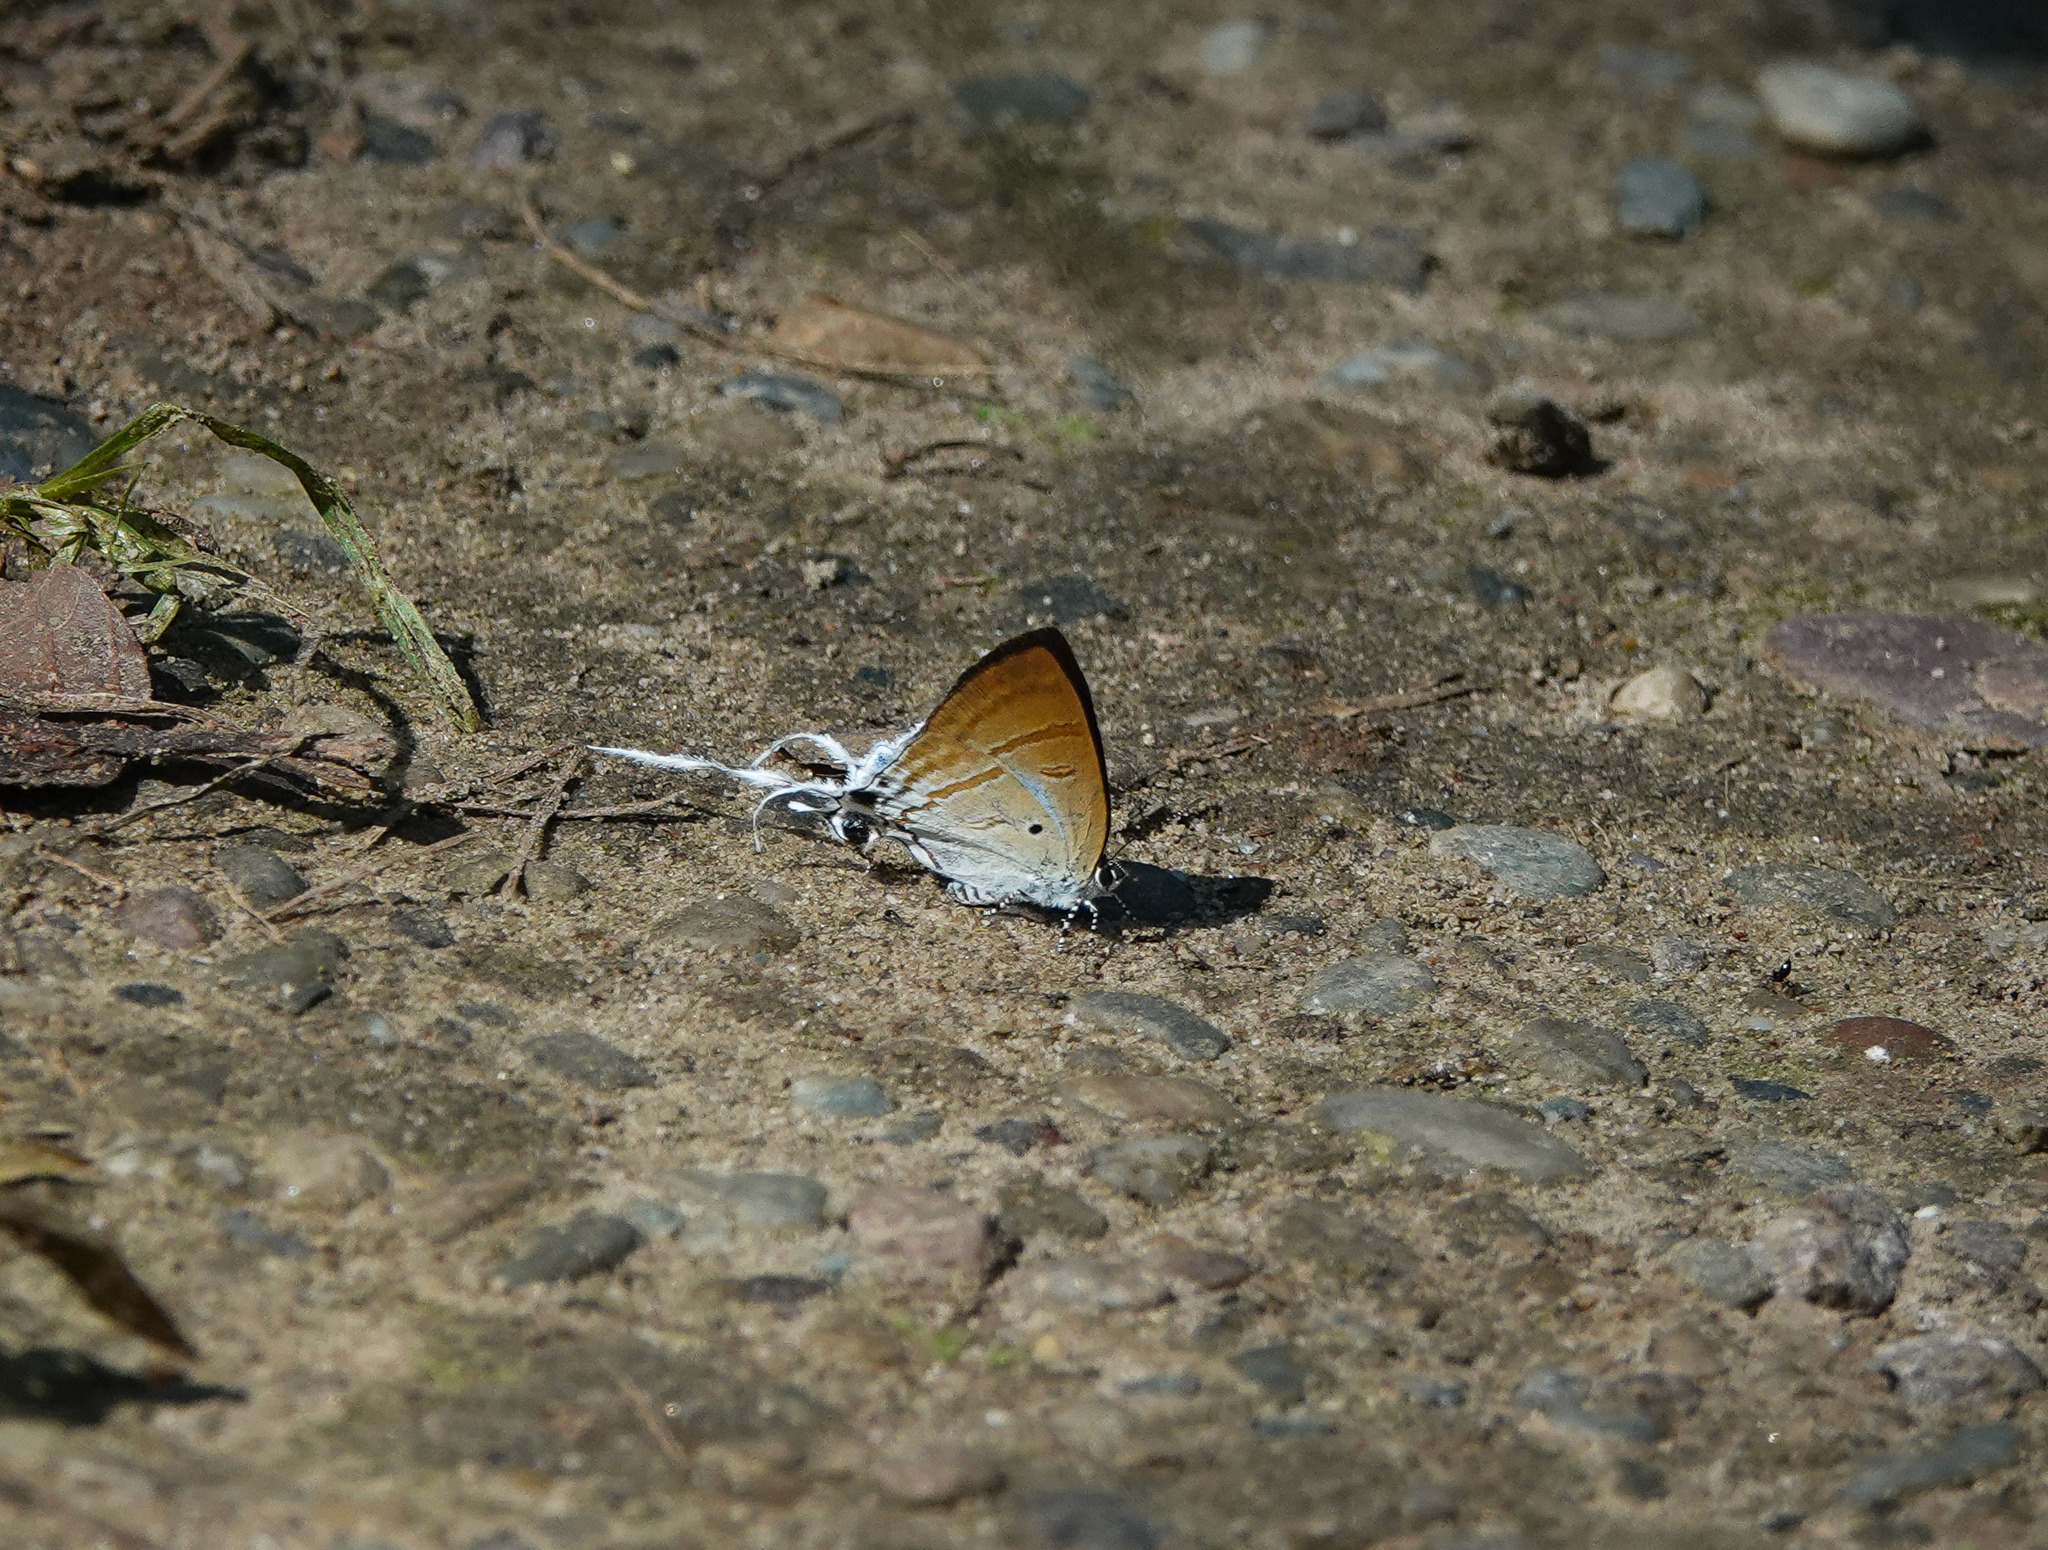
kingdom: Animalia
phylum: Arthropoda
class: Insecta
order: Lepidoptera
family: Lycaenidae
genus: Zeltus
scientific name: Zeltus amasa
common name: Fluffy tit
